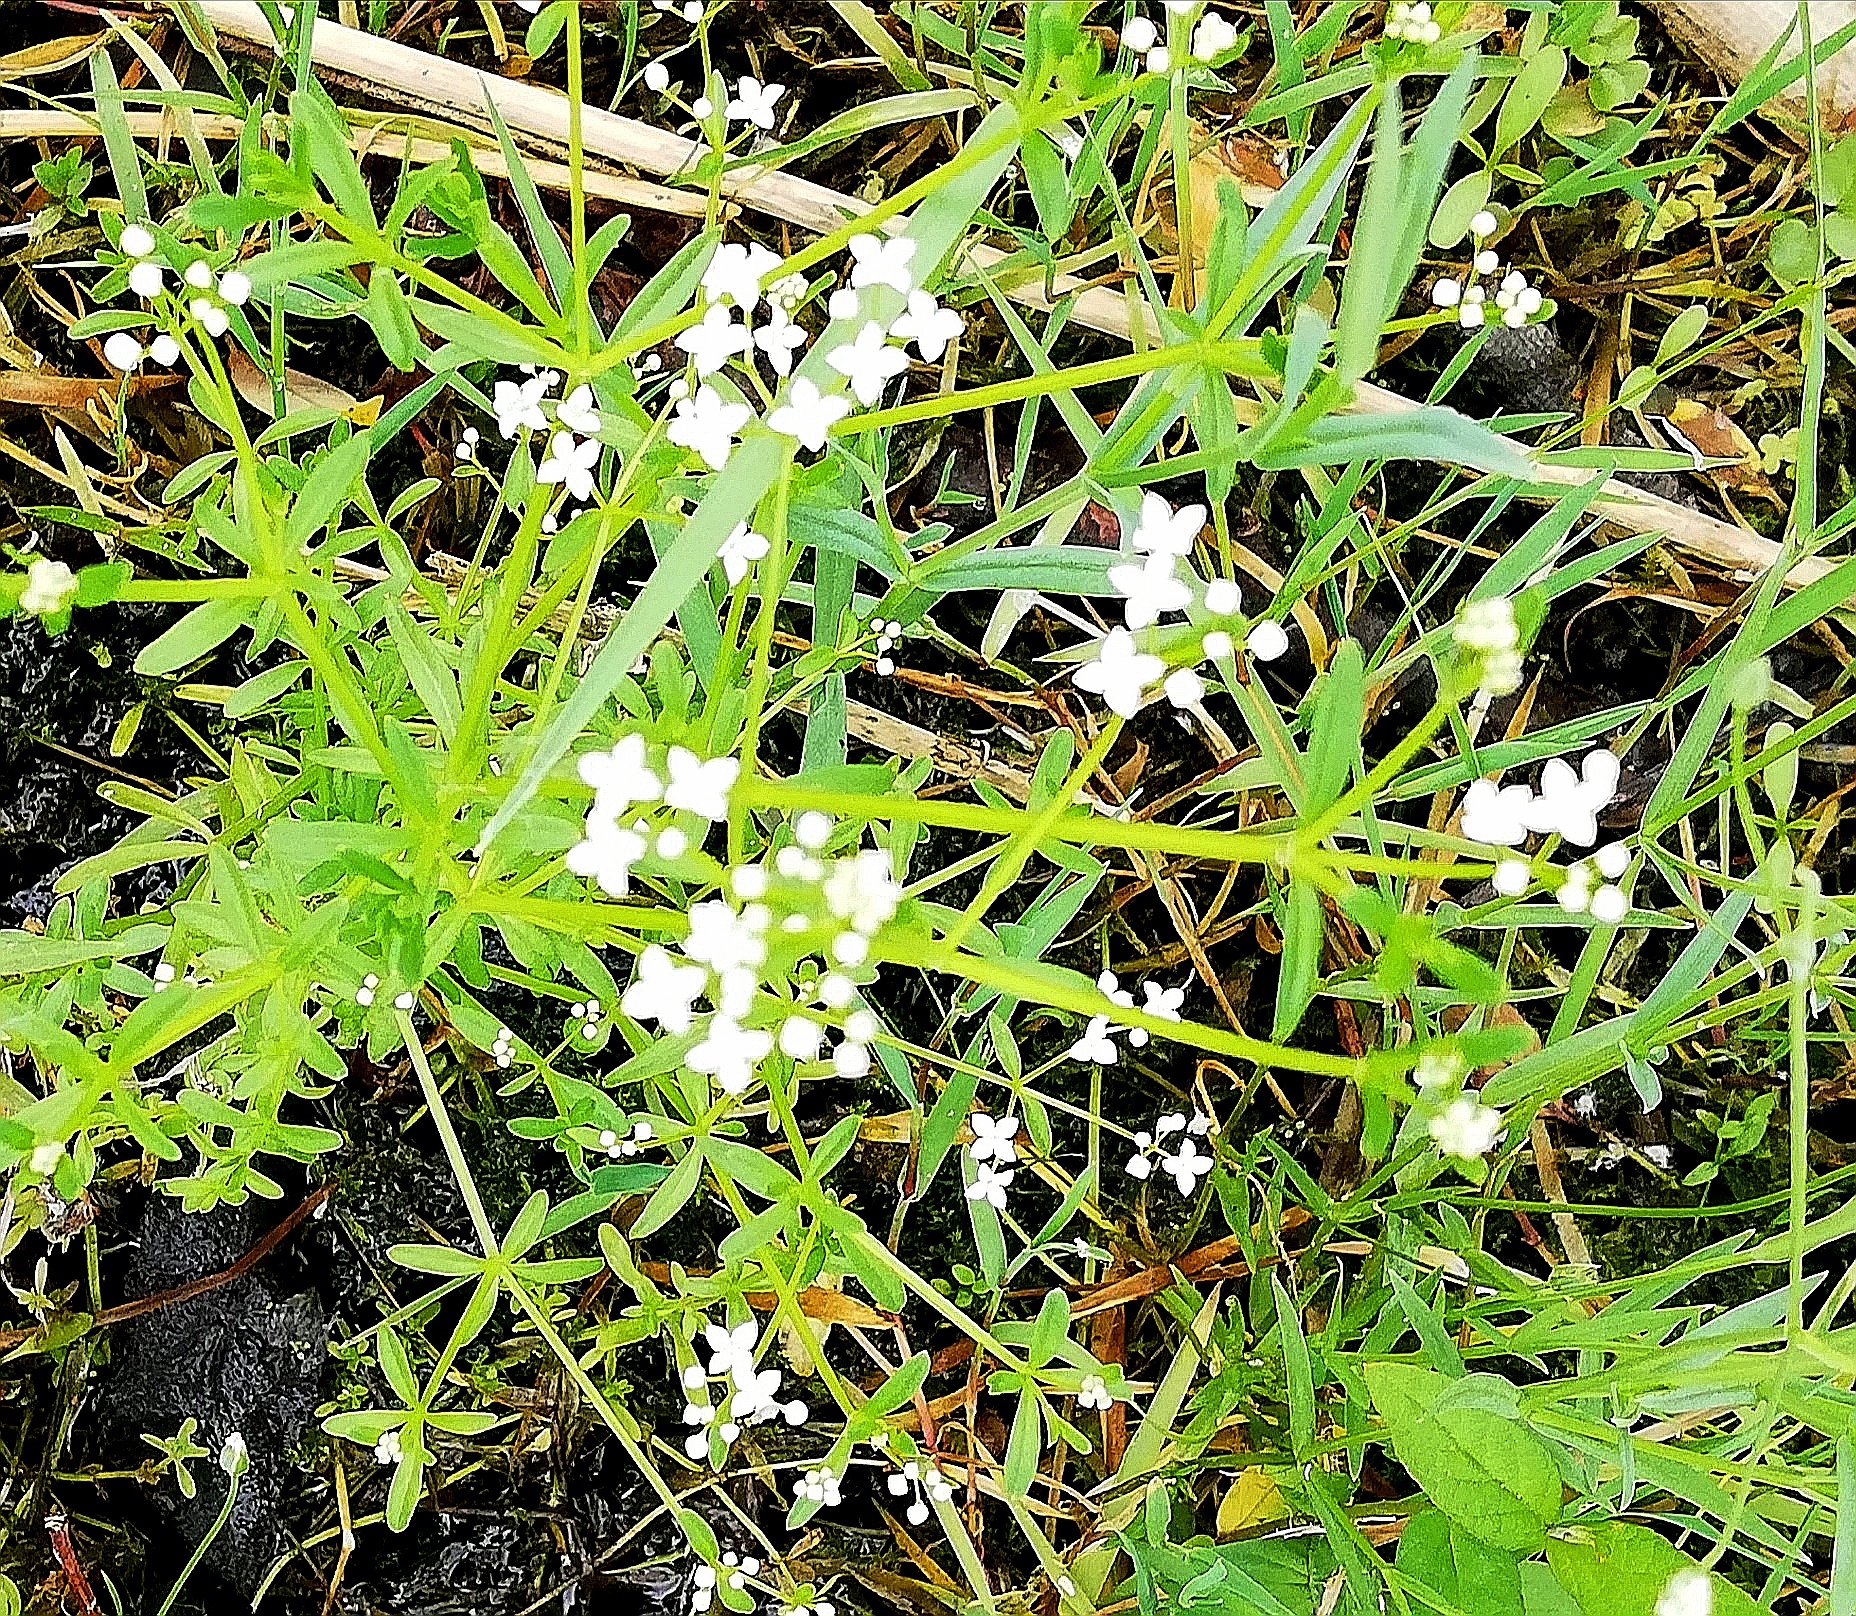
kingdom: Plantae
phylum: Tracheophyta
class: Magnoliopsida
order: Gentianales
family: Rubiaceae
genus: Galium
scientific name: Galium palustre
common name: Common marsh-bedstraw
